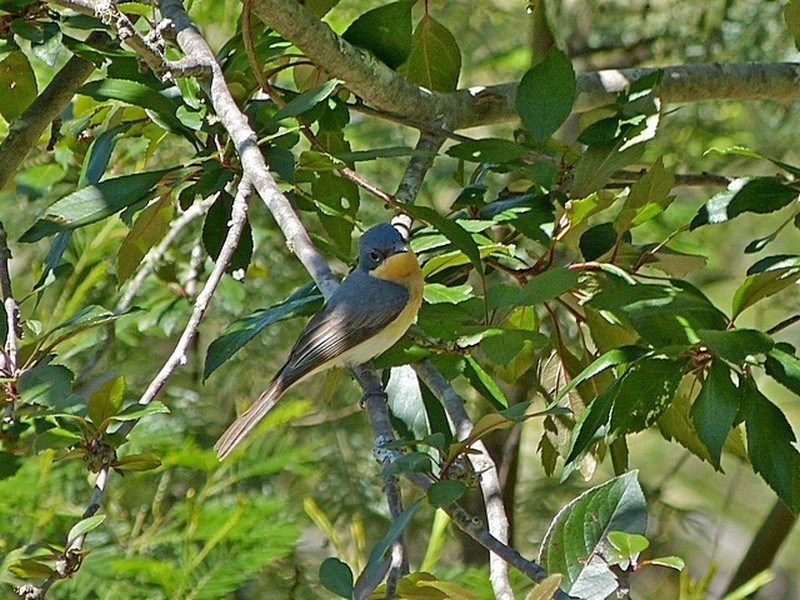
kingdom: Animalia
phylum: Chordata
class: Aves
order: Passeriformes
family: Monarchidae
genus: Myiagra
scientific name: Myiagra rubecula
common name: Leaden flycatcher
